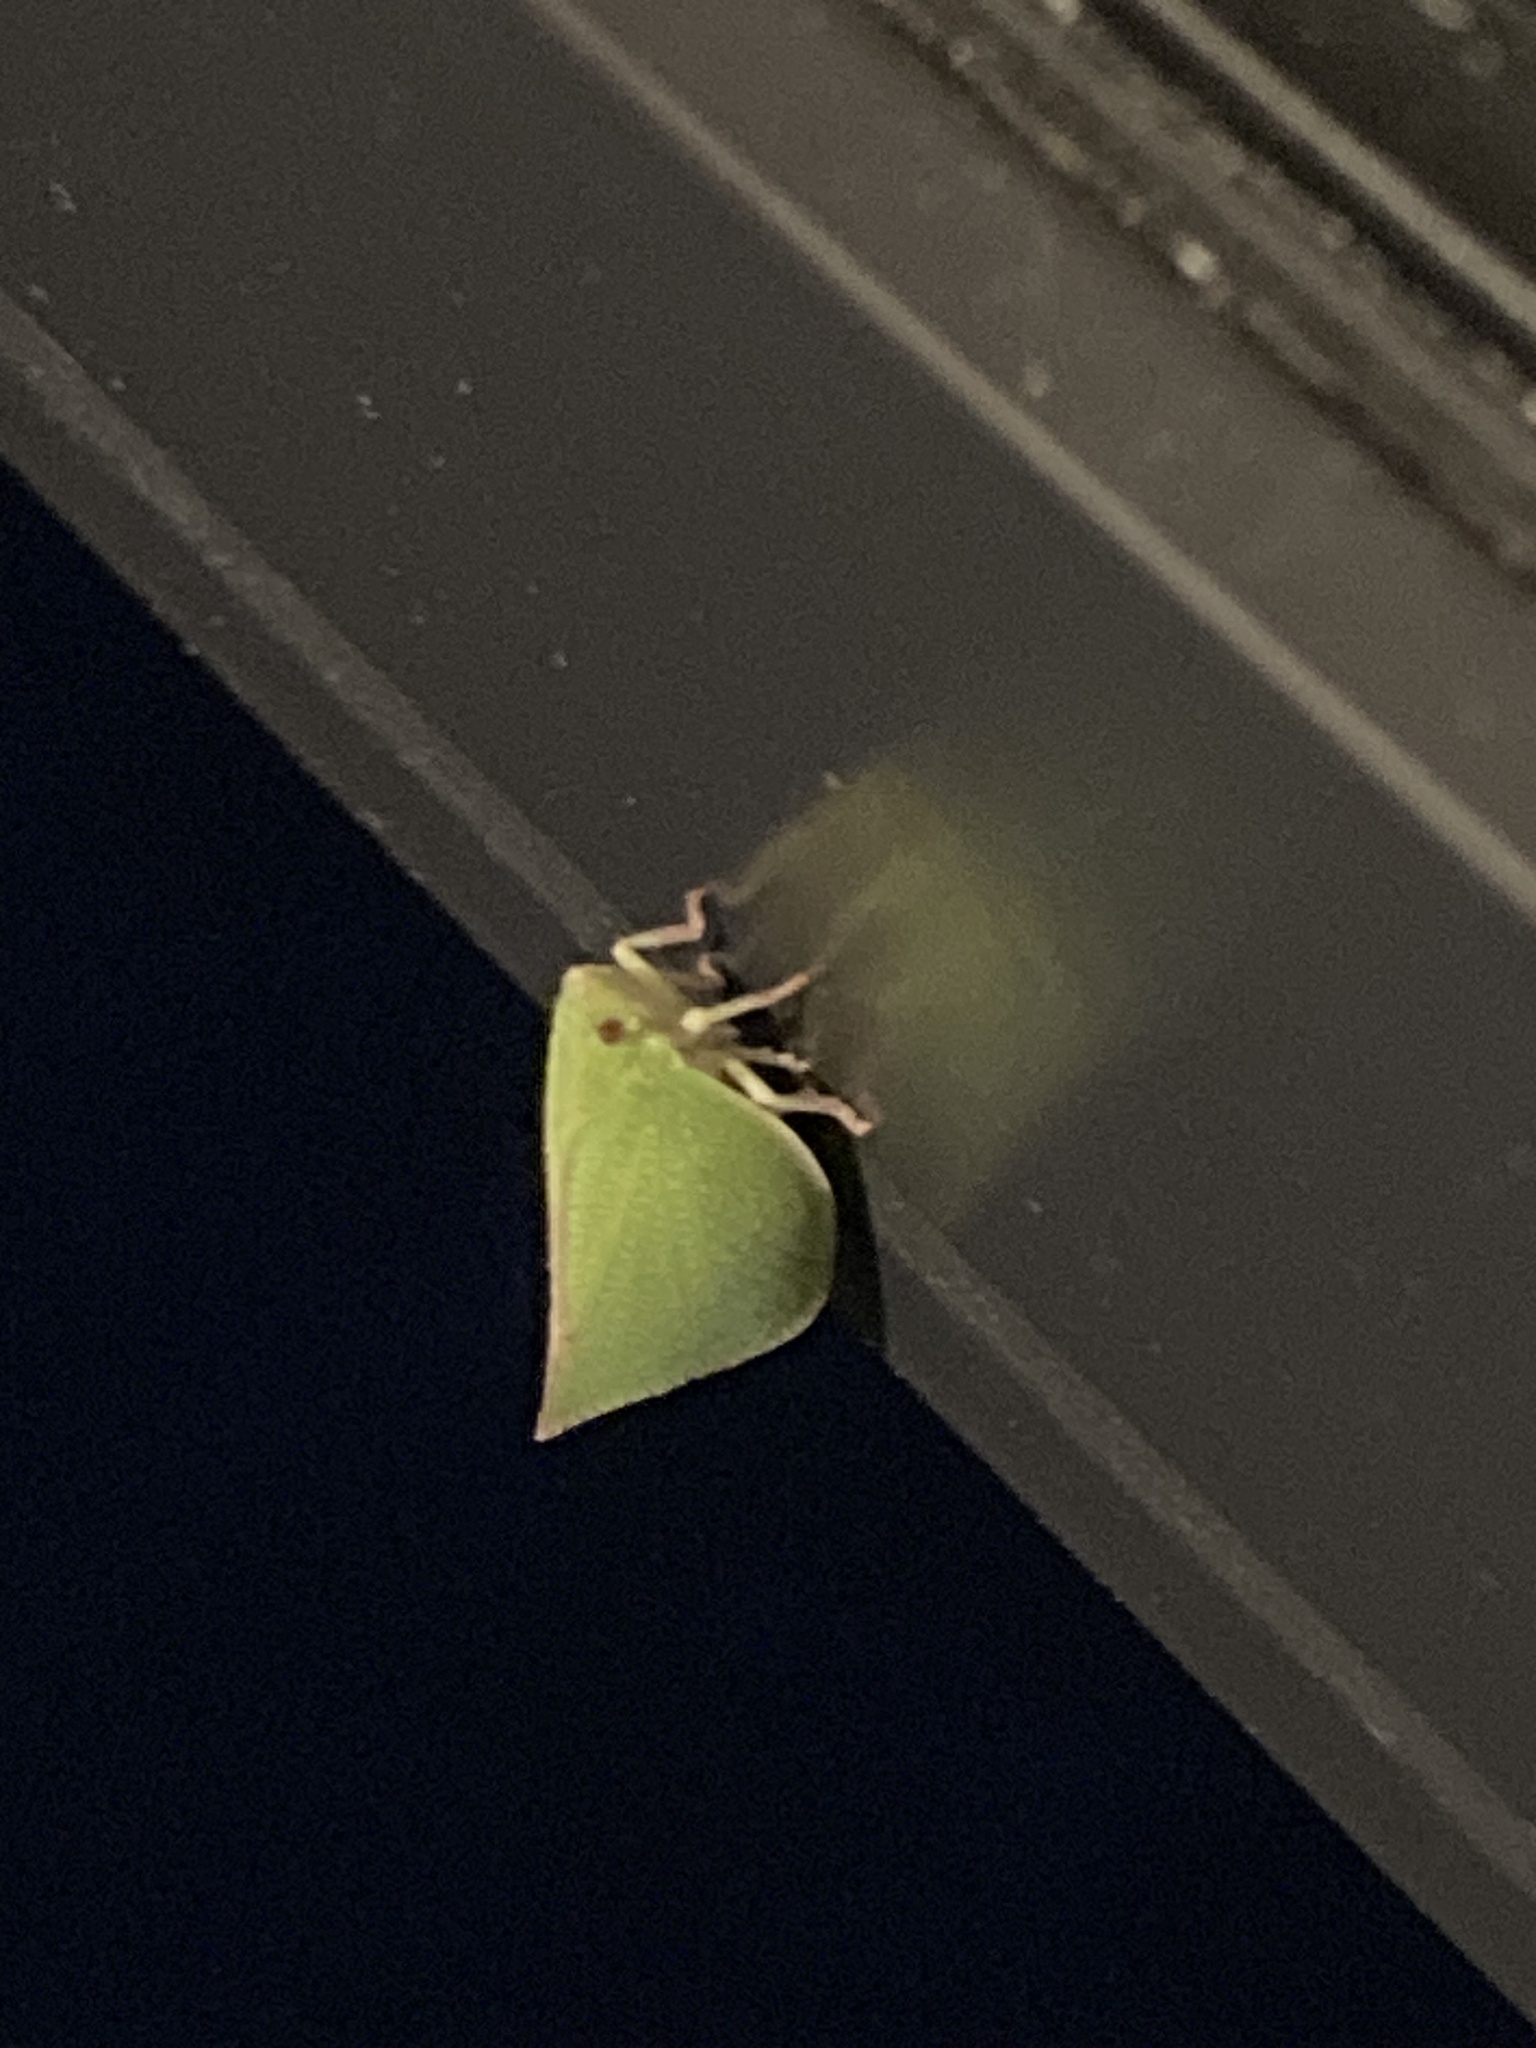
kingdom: Animalia
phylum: Arthropoda
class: Insecta
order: Hemiptera
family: Flatidae
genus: Siphanta
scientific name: Siphanta acuta
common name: Torpedo bug
